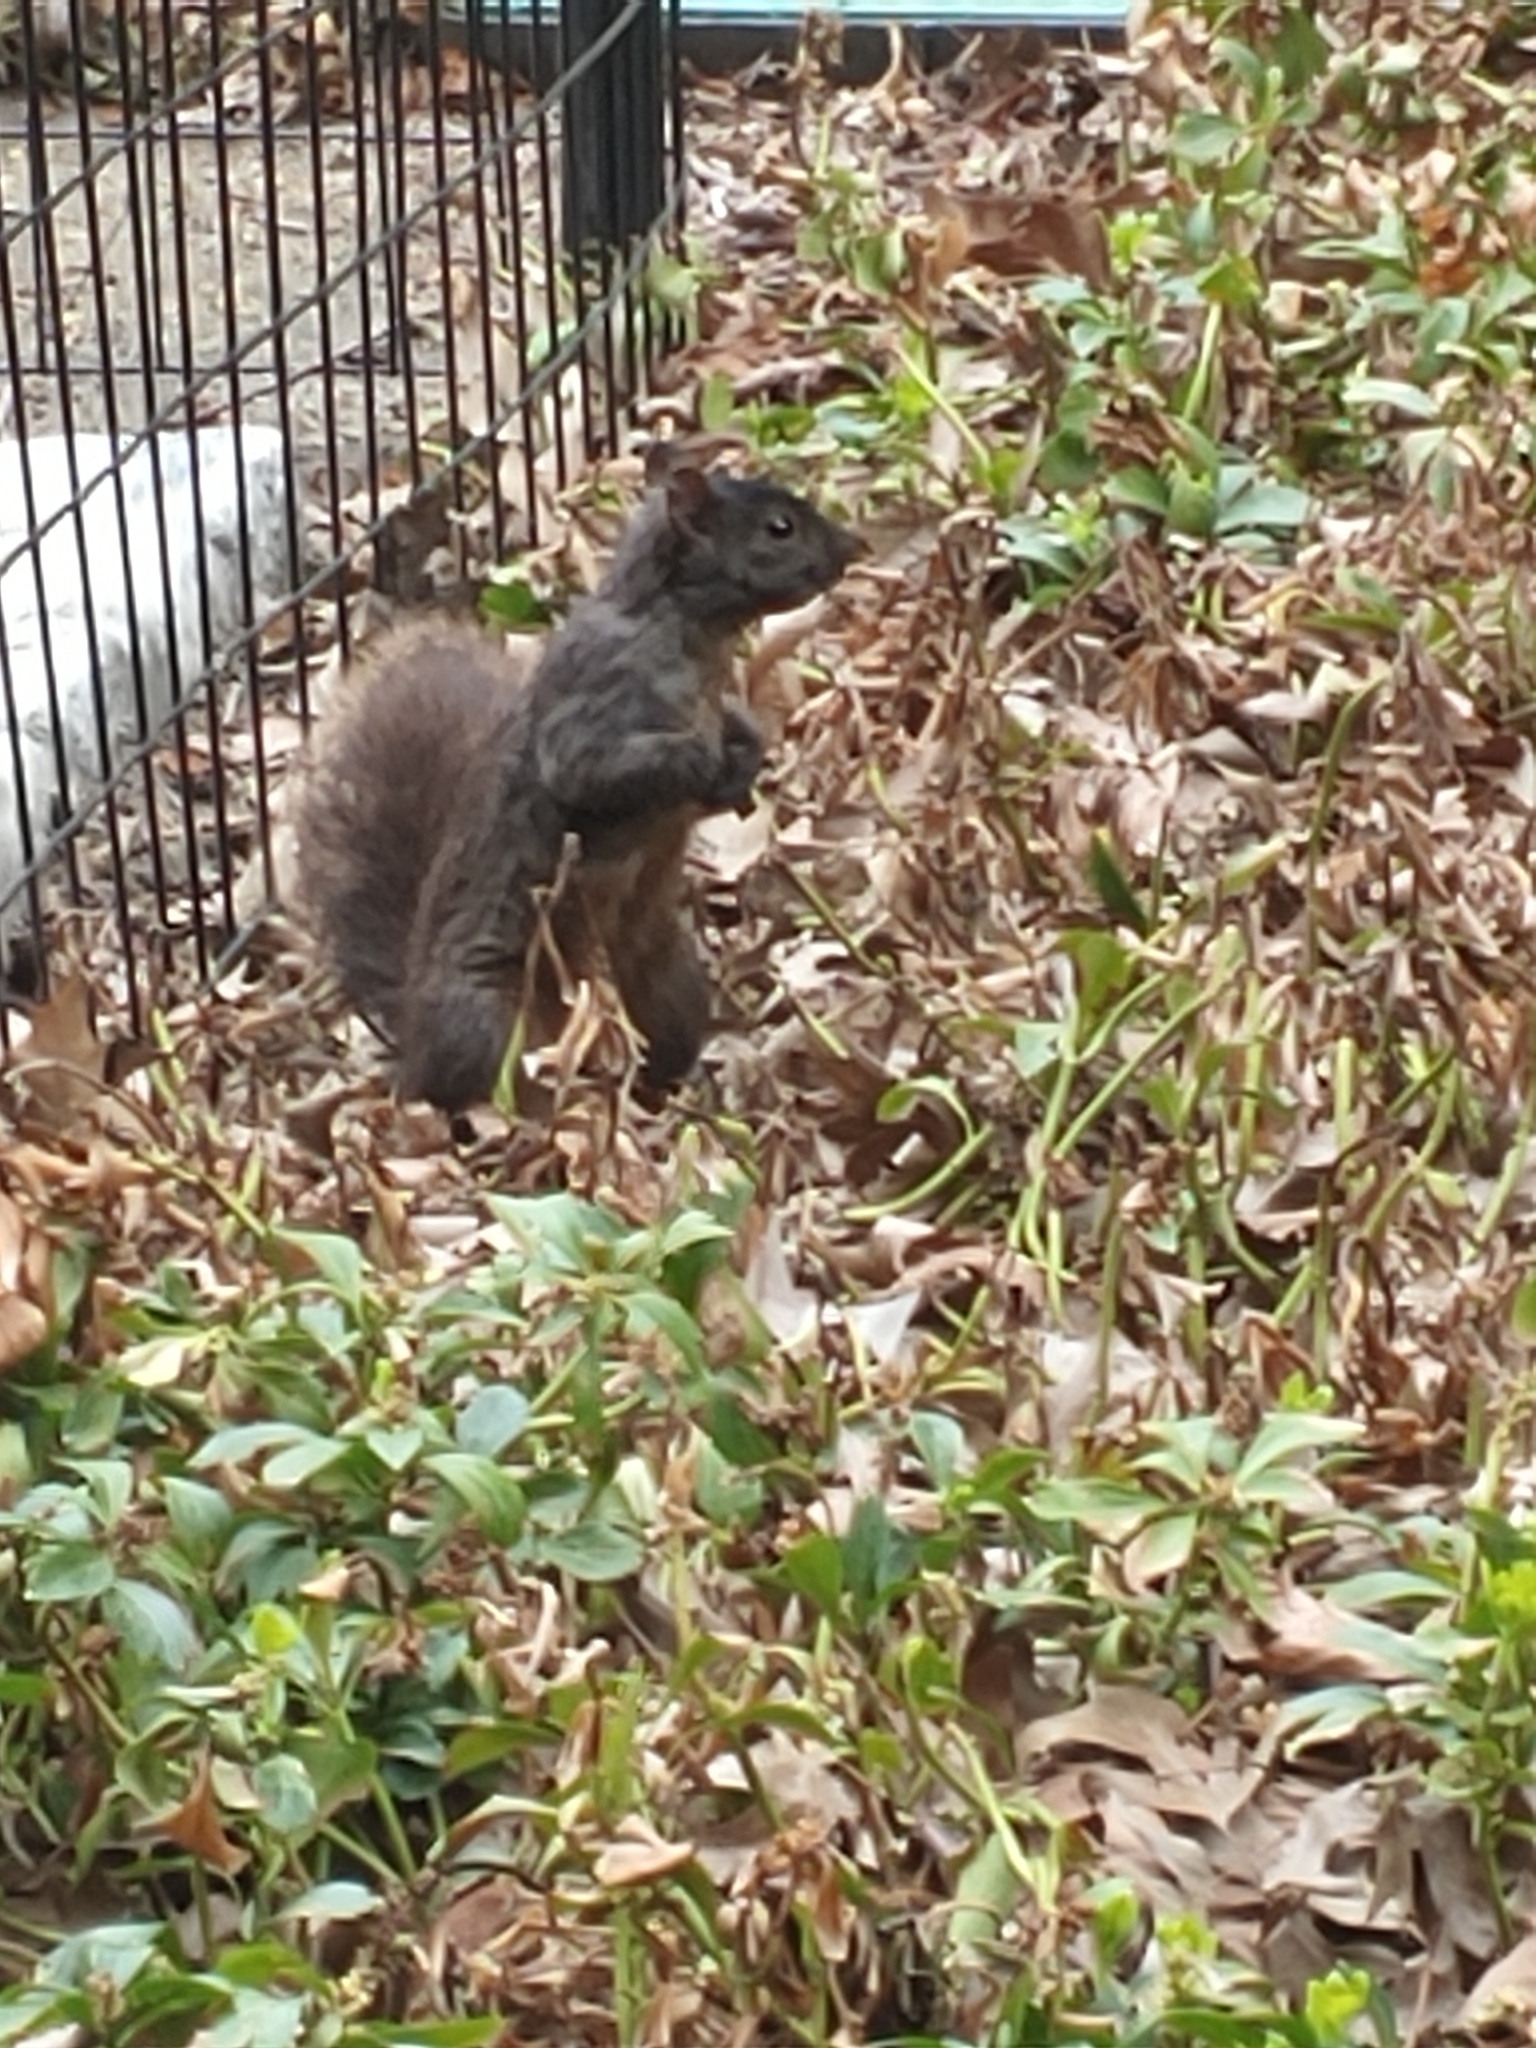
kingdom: Animalia
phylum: Chordata
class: Mammalia
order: Rodentia
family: Sciuridae
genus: Sciurus
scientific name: Sciurus carolinensis
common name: Eastern gray squirrel
